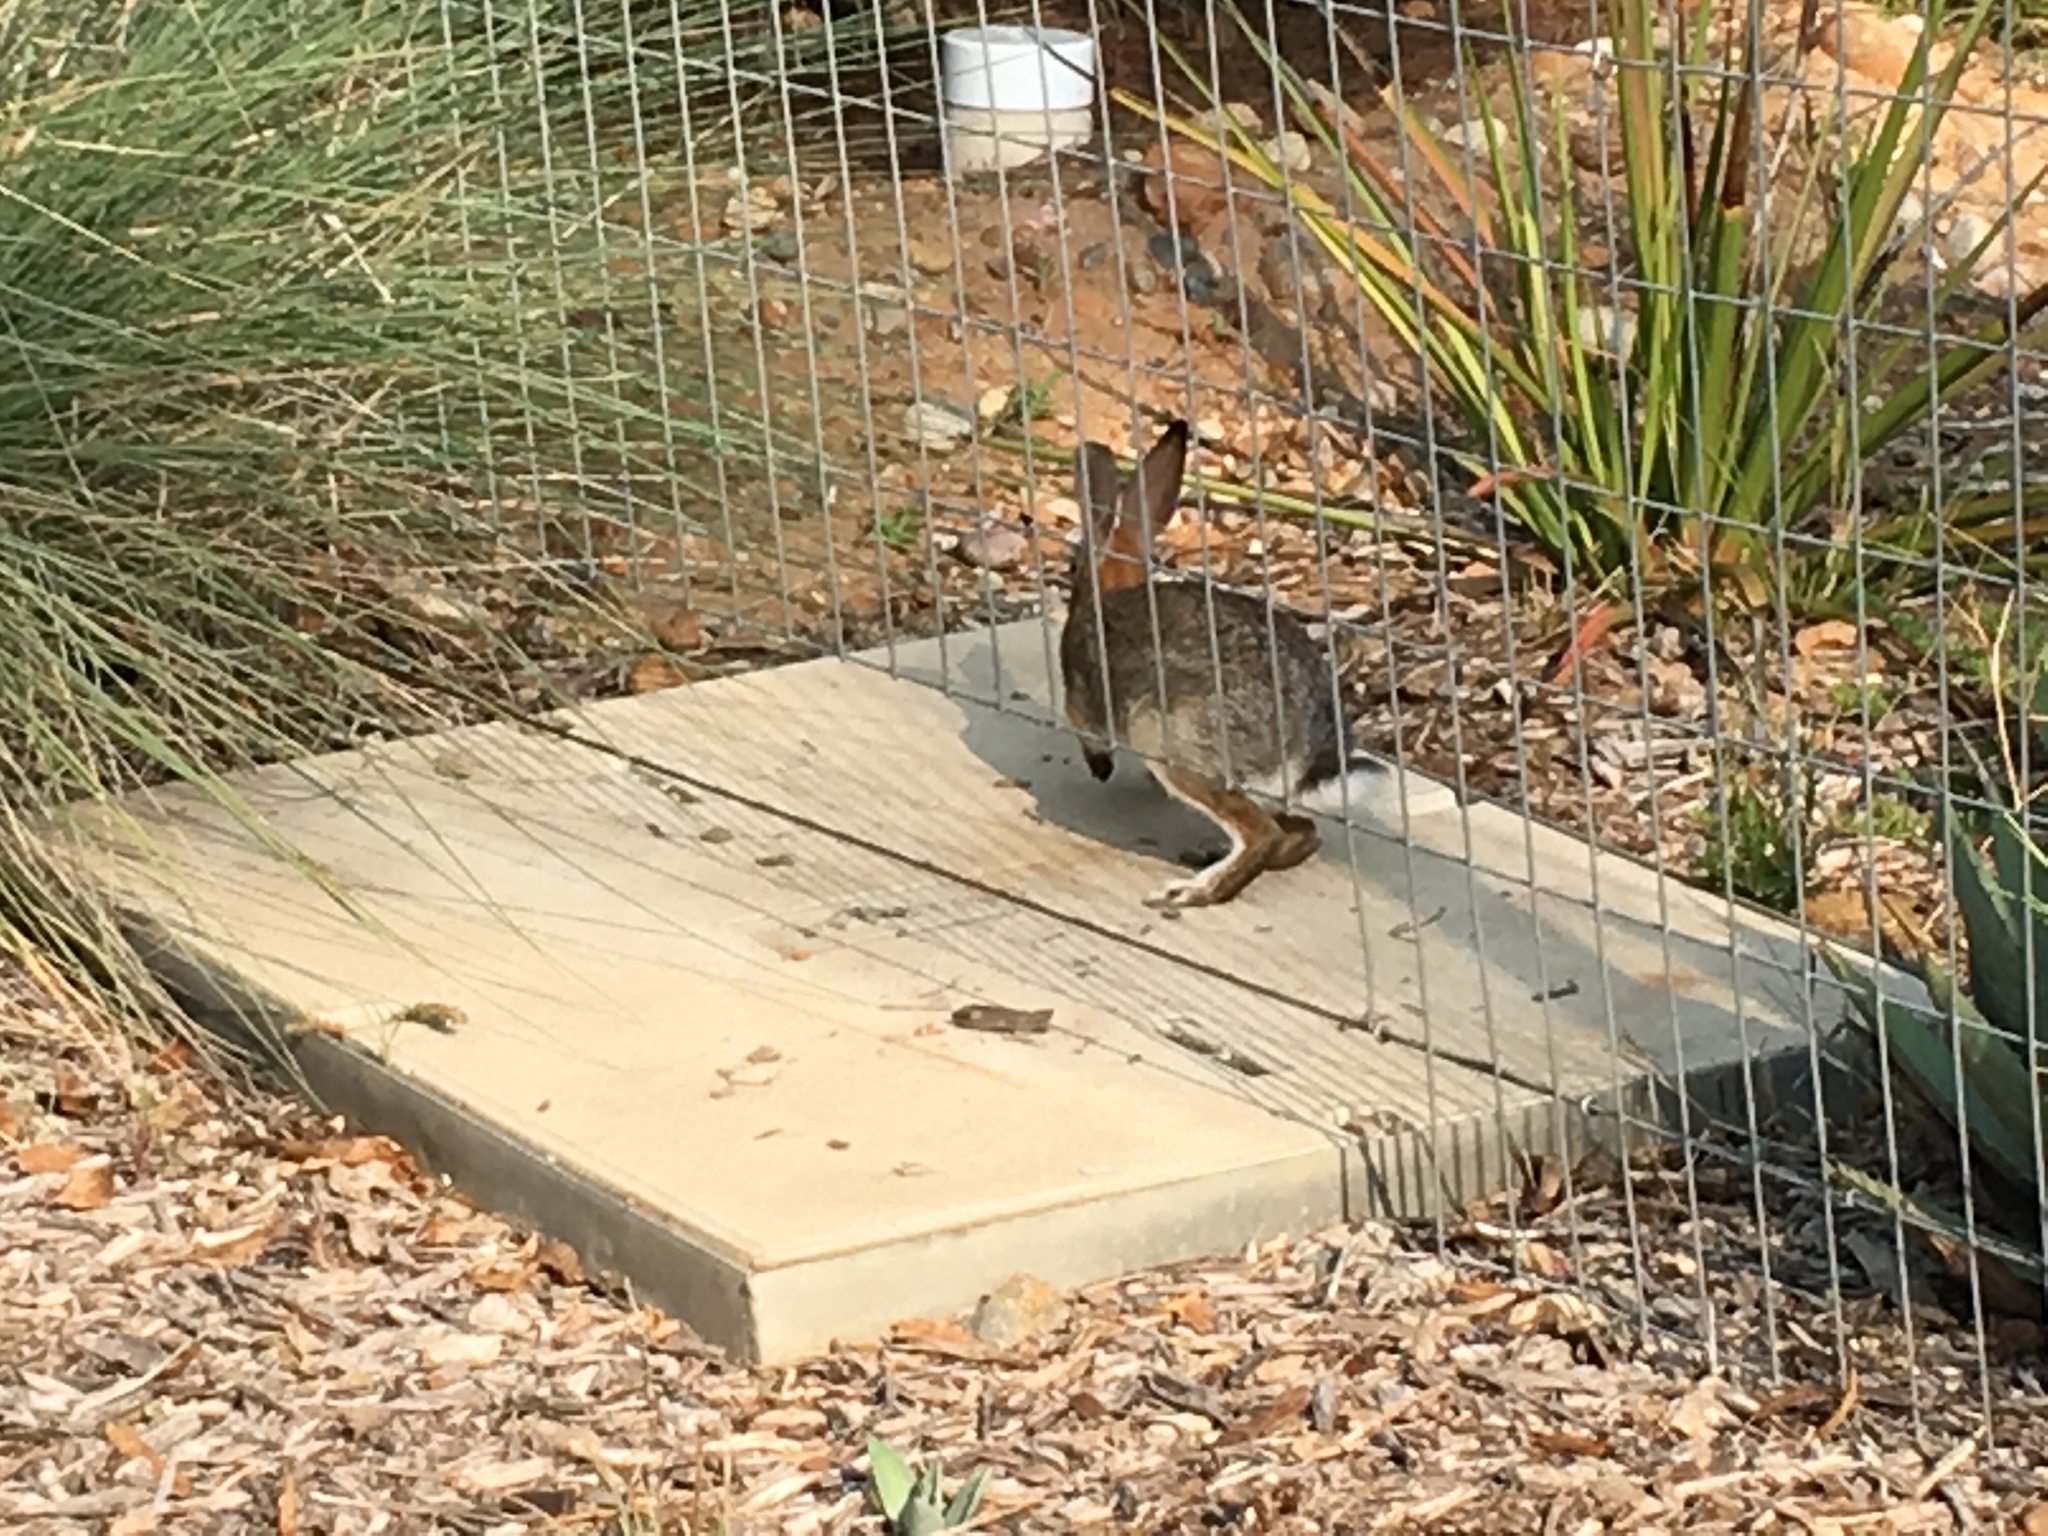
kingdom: Animalia
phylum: Chordata
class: Mammalia
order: Lagomorpha
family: Leporidae
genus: Sylvilagus
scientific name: Sylvilagus audubonii
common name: Desert cottontail
